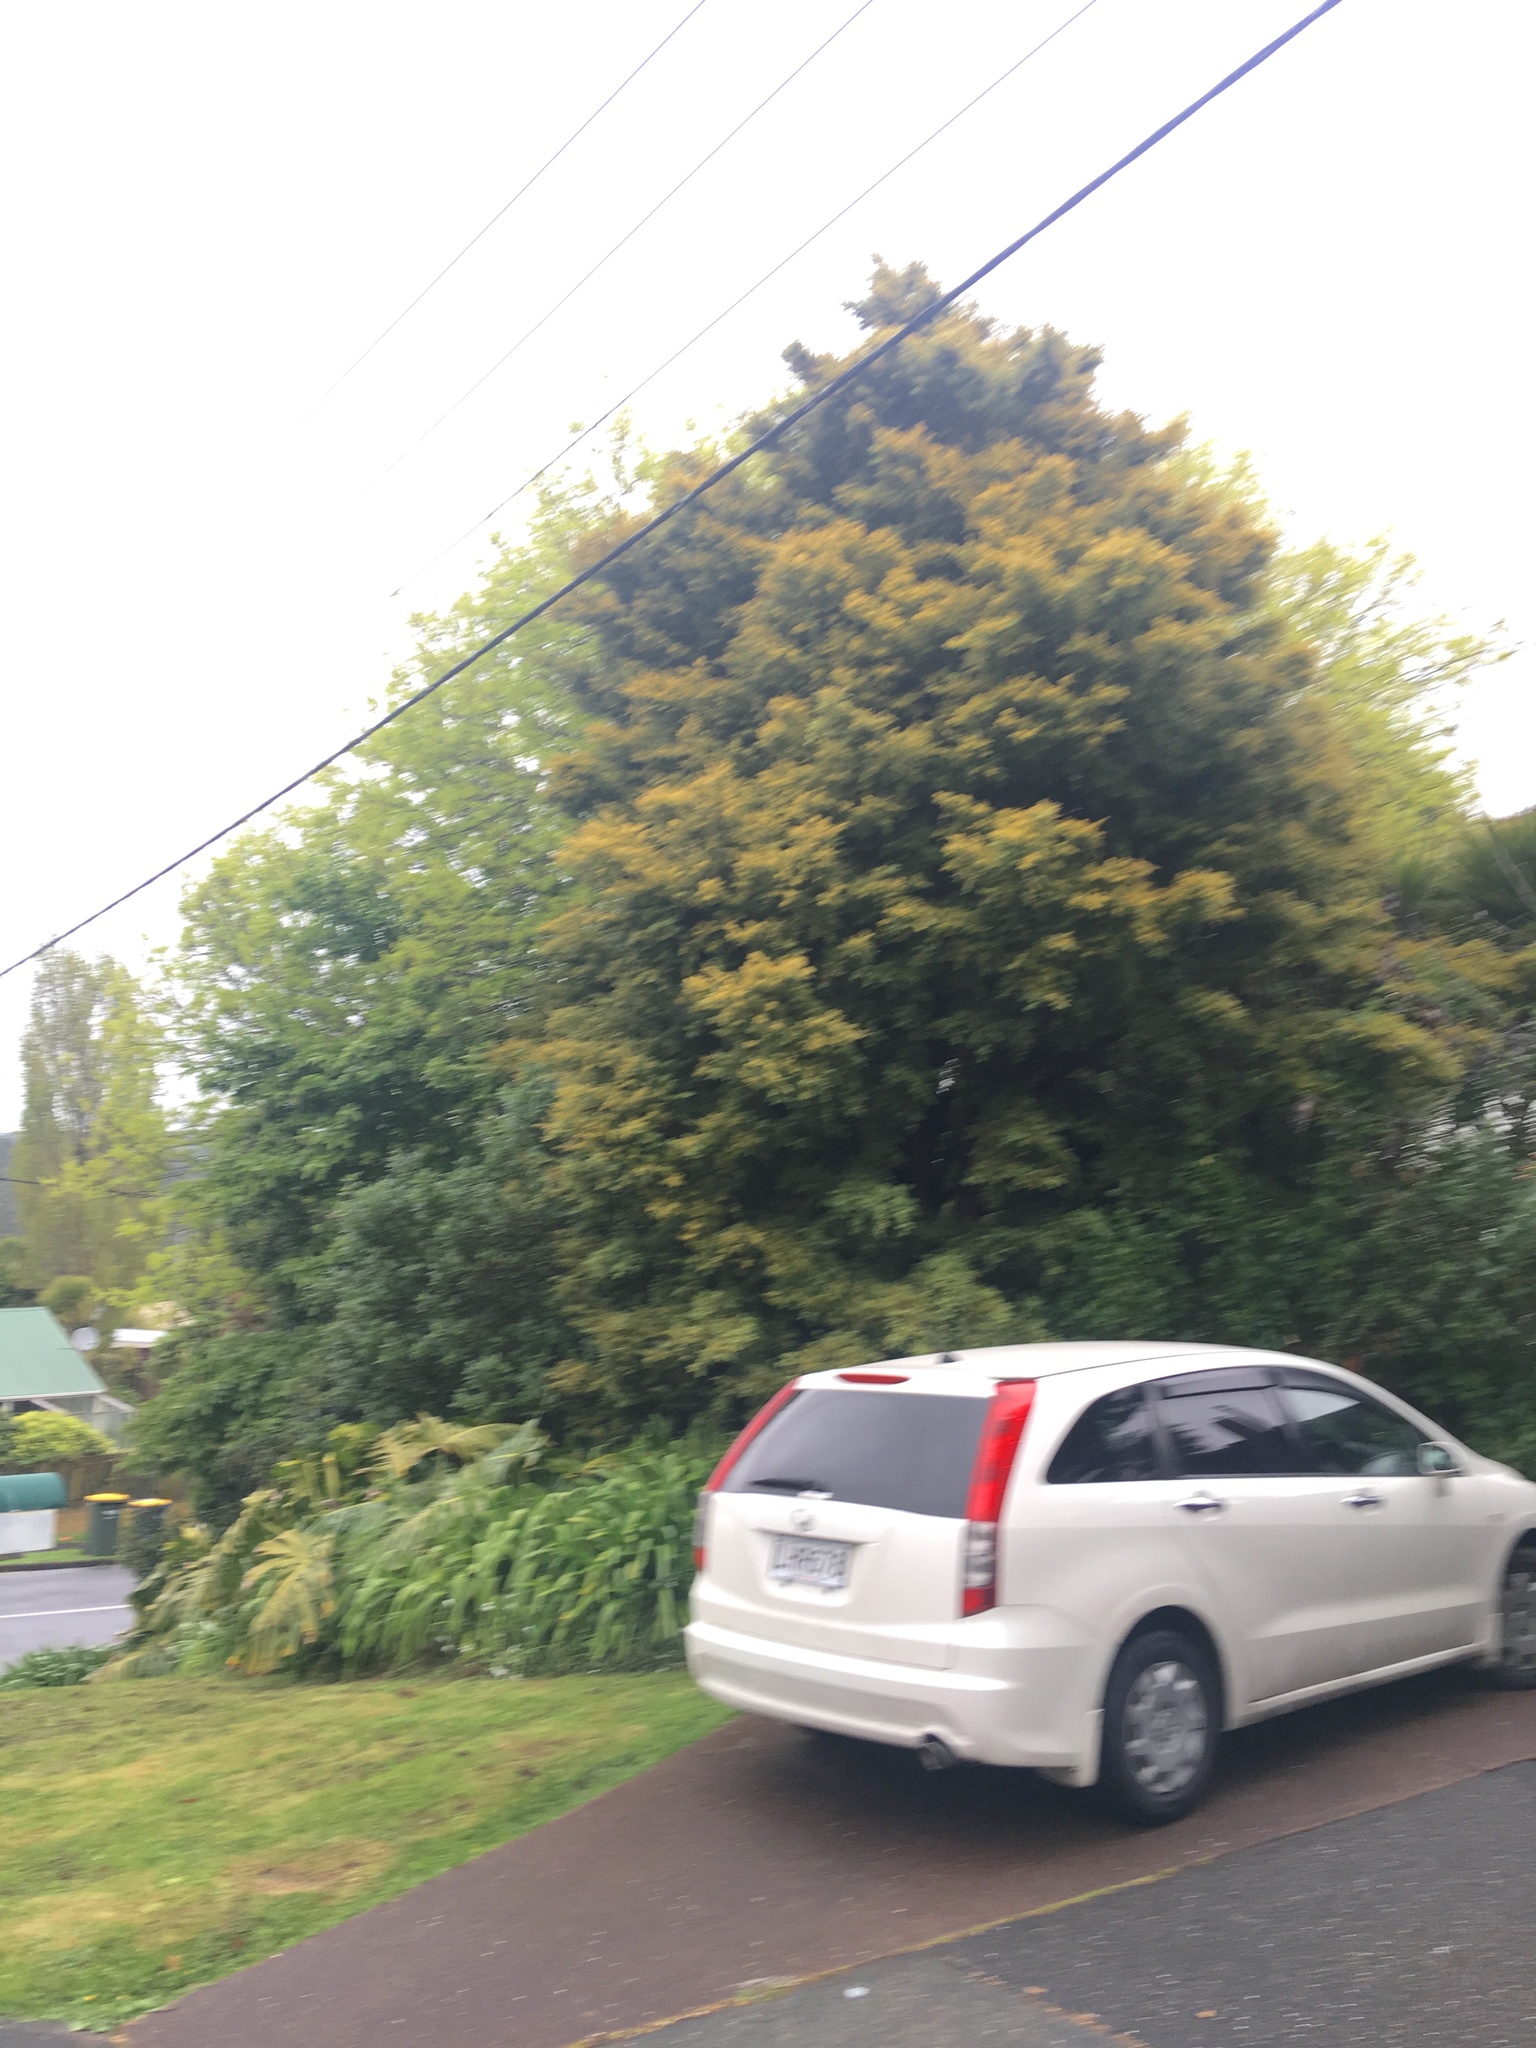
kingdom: Plantae
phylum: Tracheophyta
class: Pinopsida
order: Pinales
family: Podocarpaceae
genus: Podocarpus
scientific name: Podocarpus totara
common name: Totara
